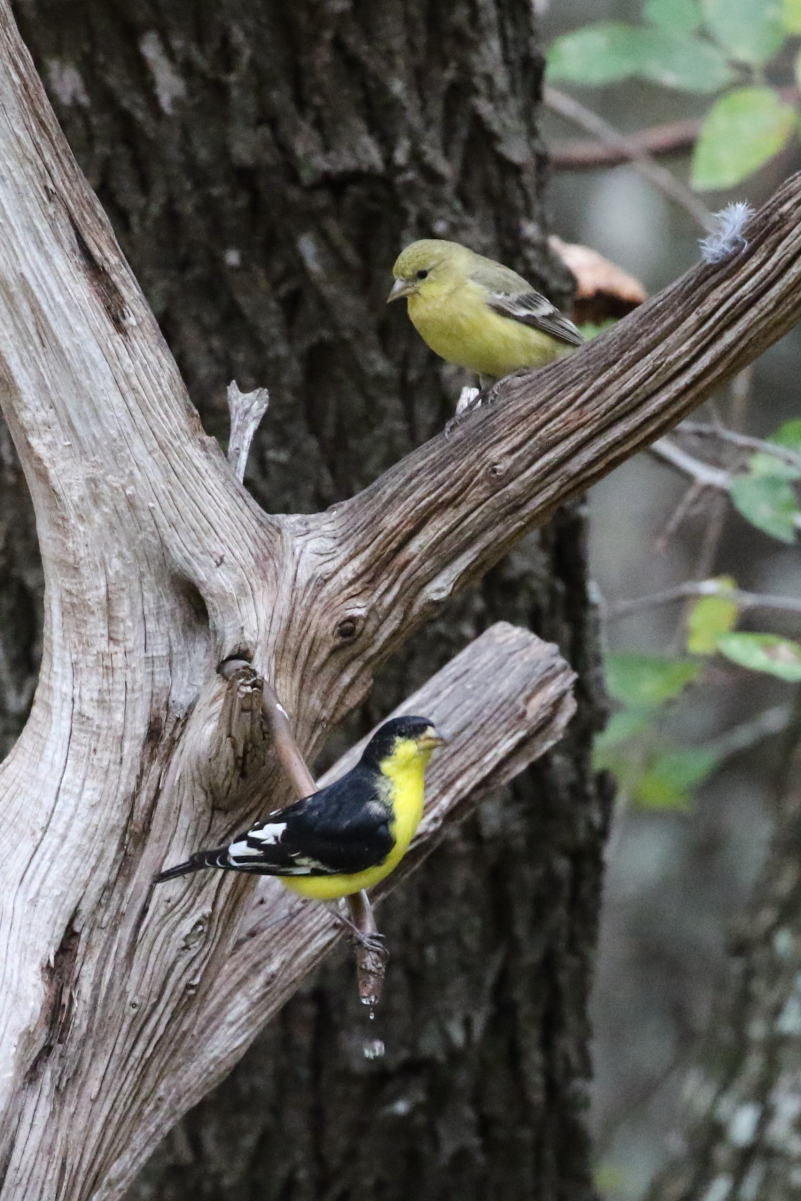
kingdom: Animalia
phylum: Chordata
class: Aves
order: Passeriformes
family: Fringillidae
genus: Spinus
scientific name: Spinus psaltria
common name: Lesser goldfinch
